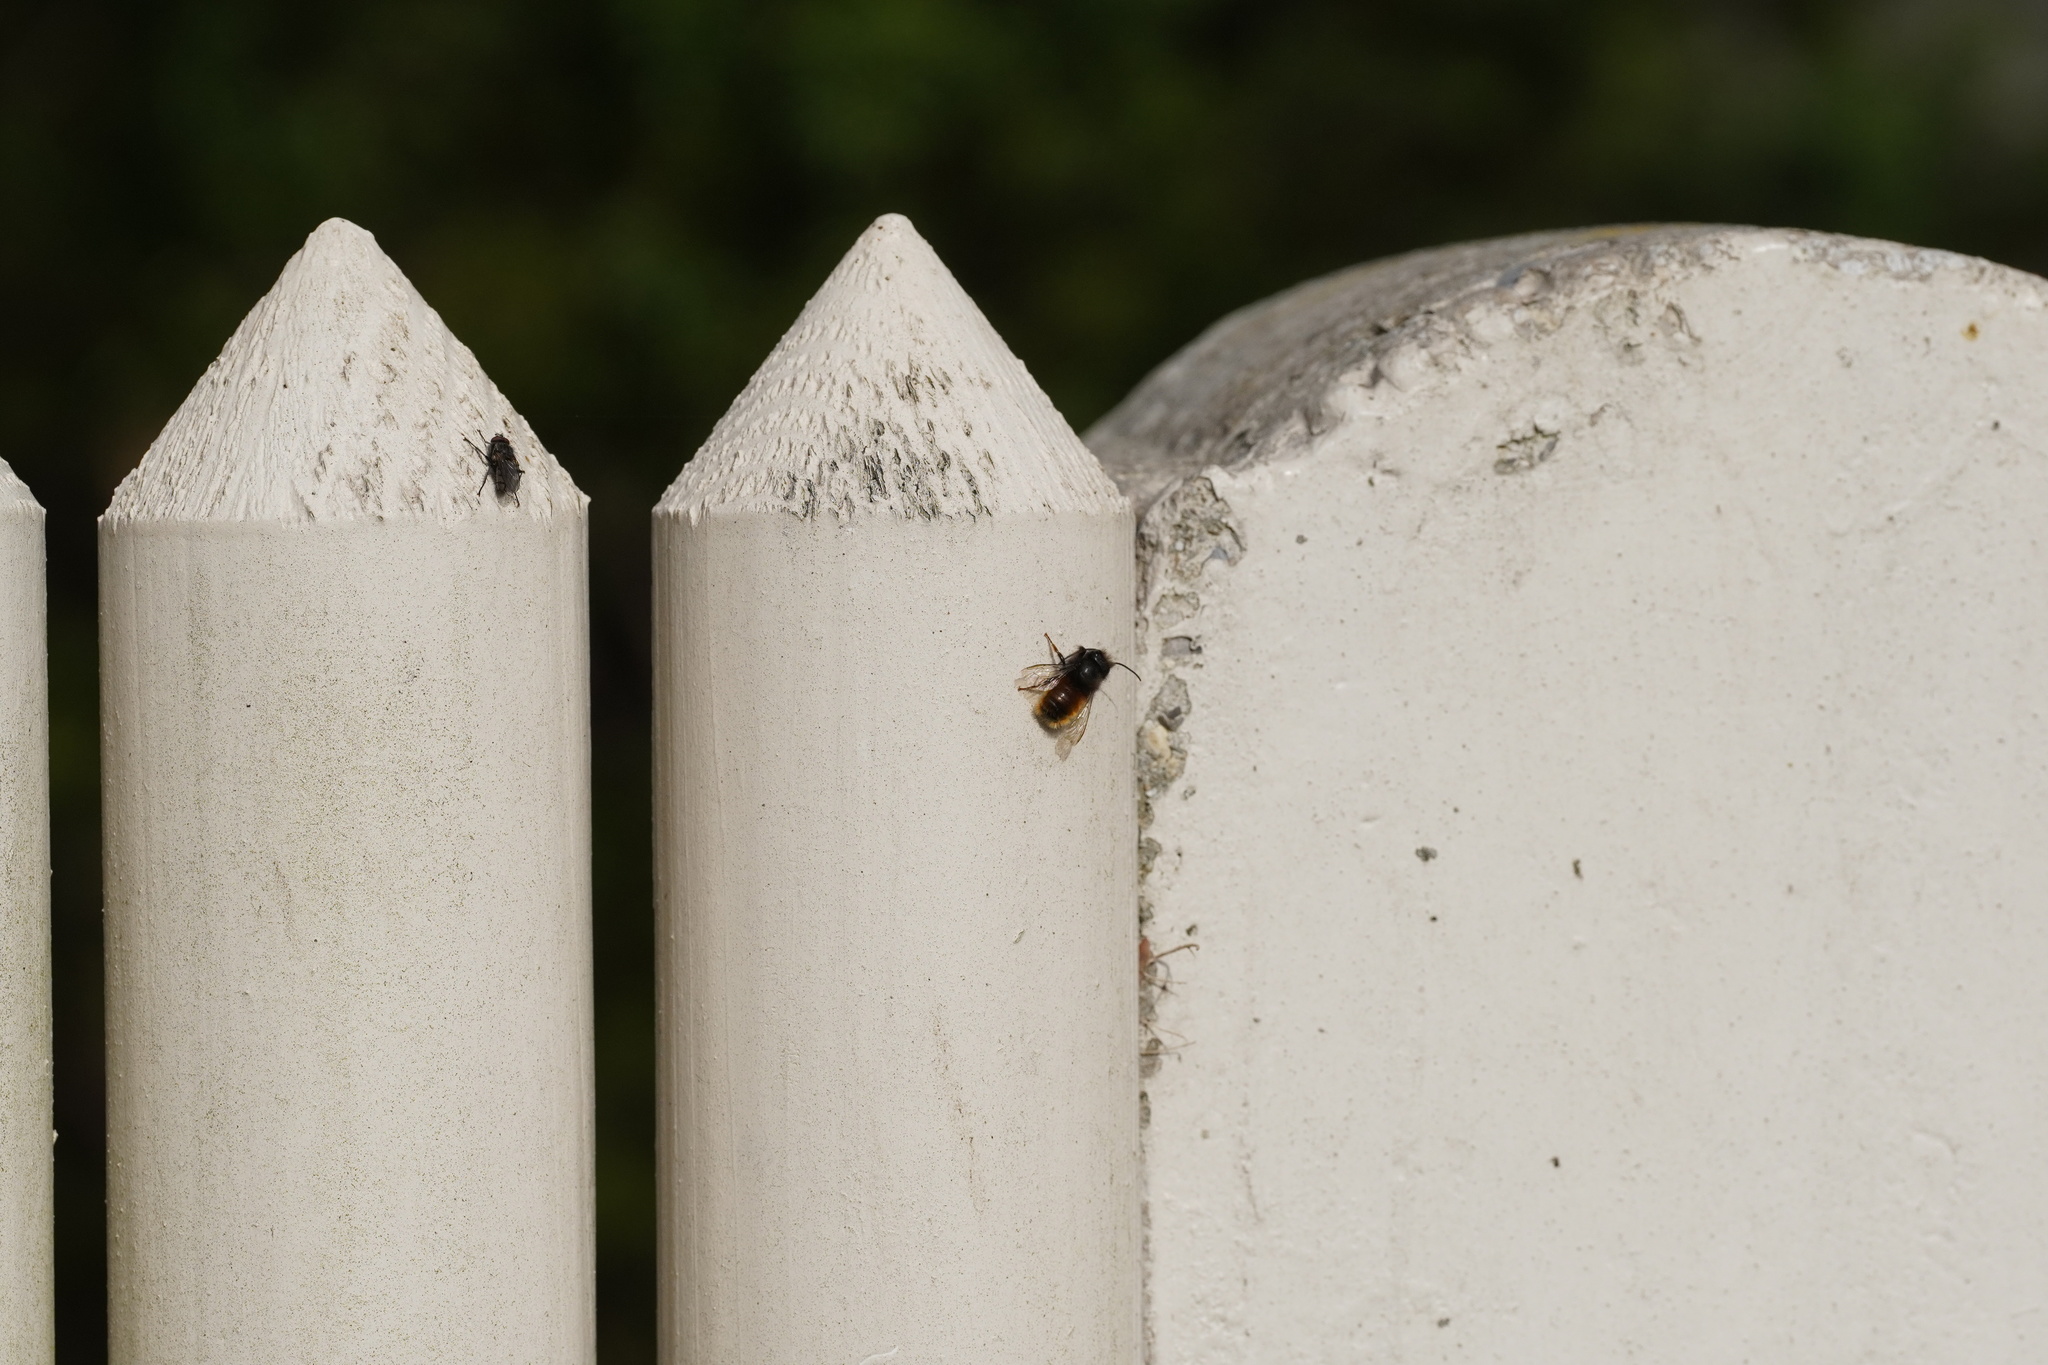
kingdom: Animalia
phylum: Arthropoda
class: Insecta
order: Hymenoptera
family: Megachilidae
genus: Osmia
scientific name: Osmia cornuta
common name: Mason bee
